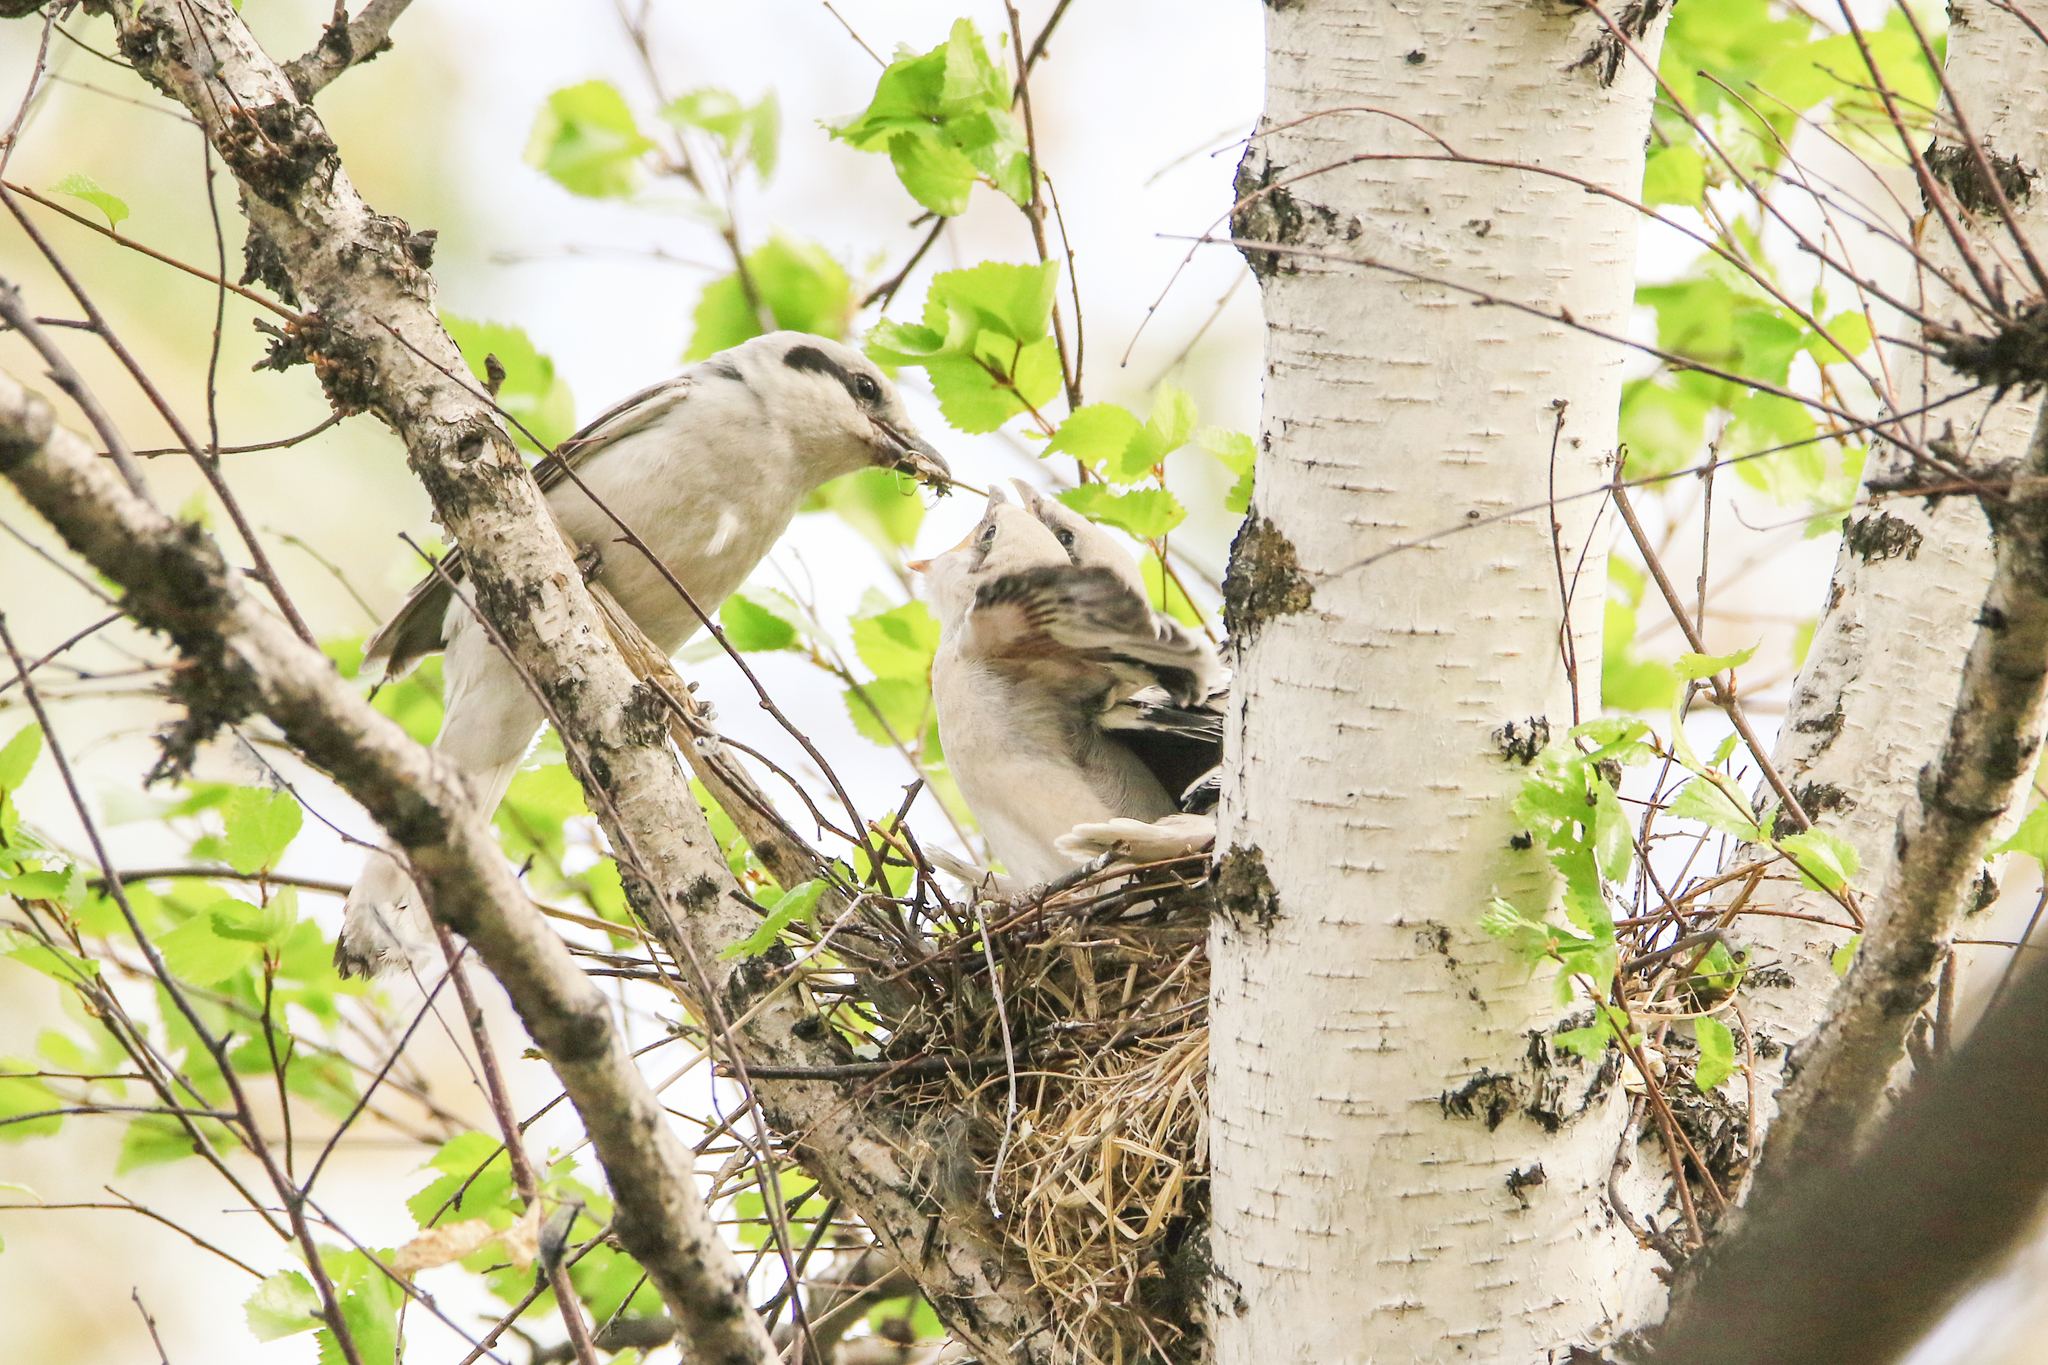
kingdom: Animalia
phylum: Chordata
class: Aves
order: Passeriformes
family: Laniidae
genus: Lanius
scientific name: Lanius excubitor
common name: Great grey shrike
